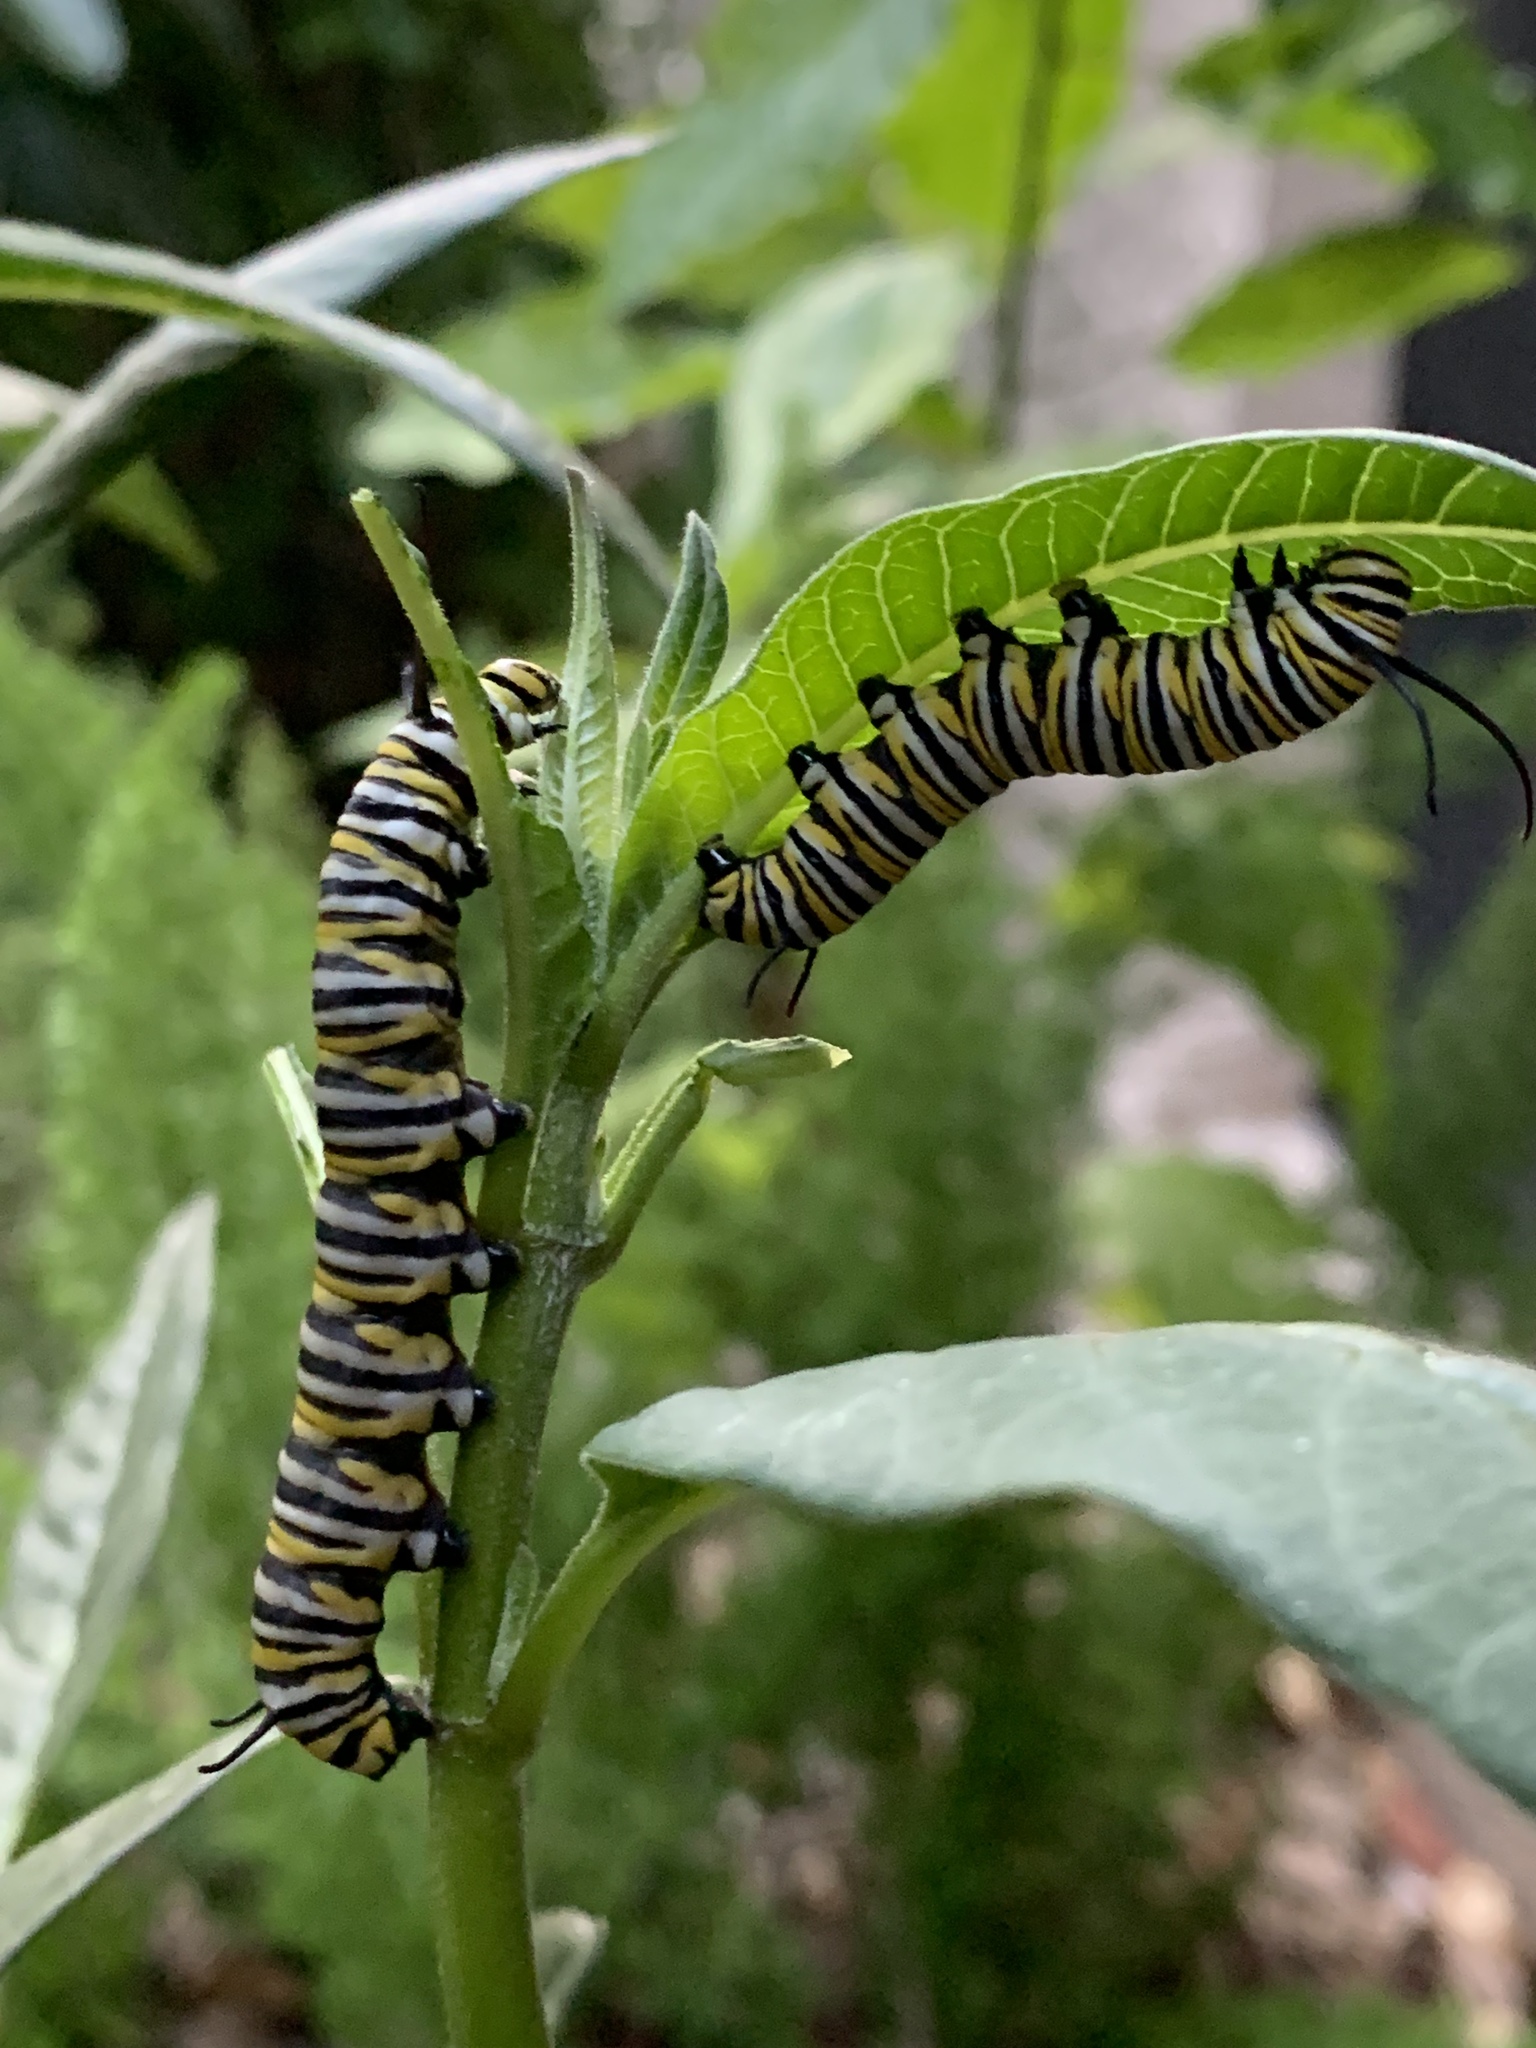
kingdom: Animalia
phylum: Arthropoda
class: Insecta
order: Lepidoptera
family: Nymphalidae
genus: Danaus
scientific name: Danaus plexippus
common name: Monarch
